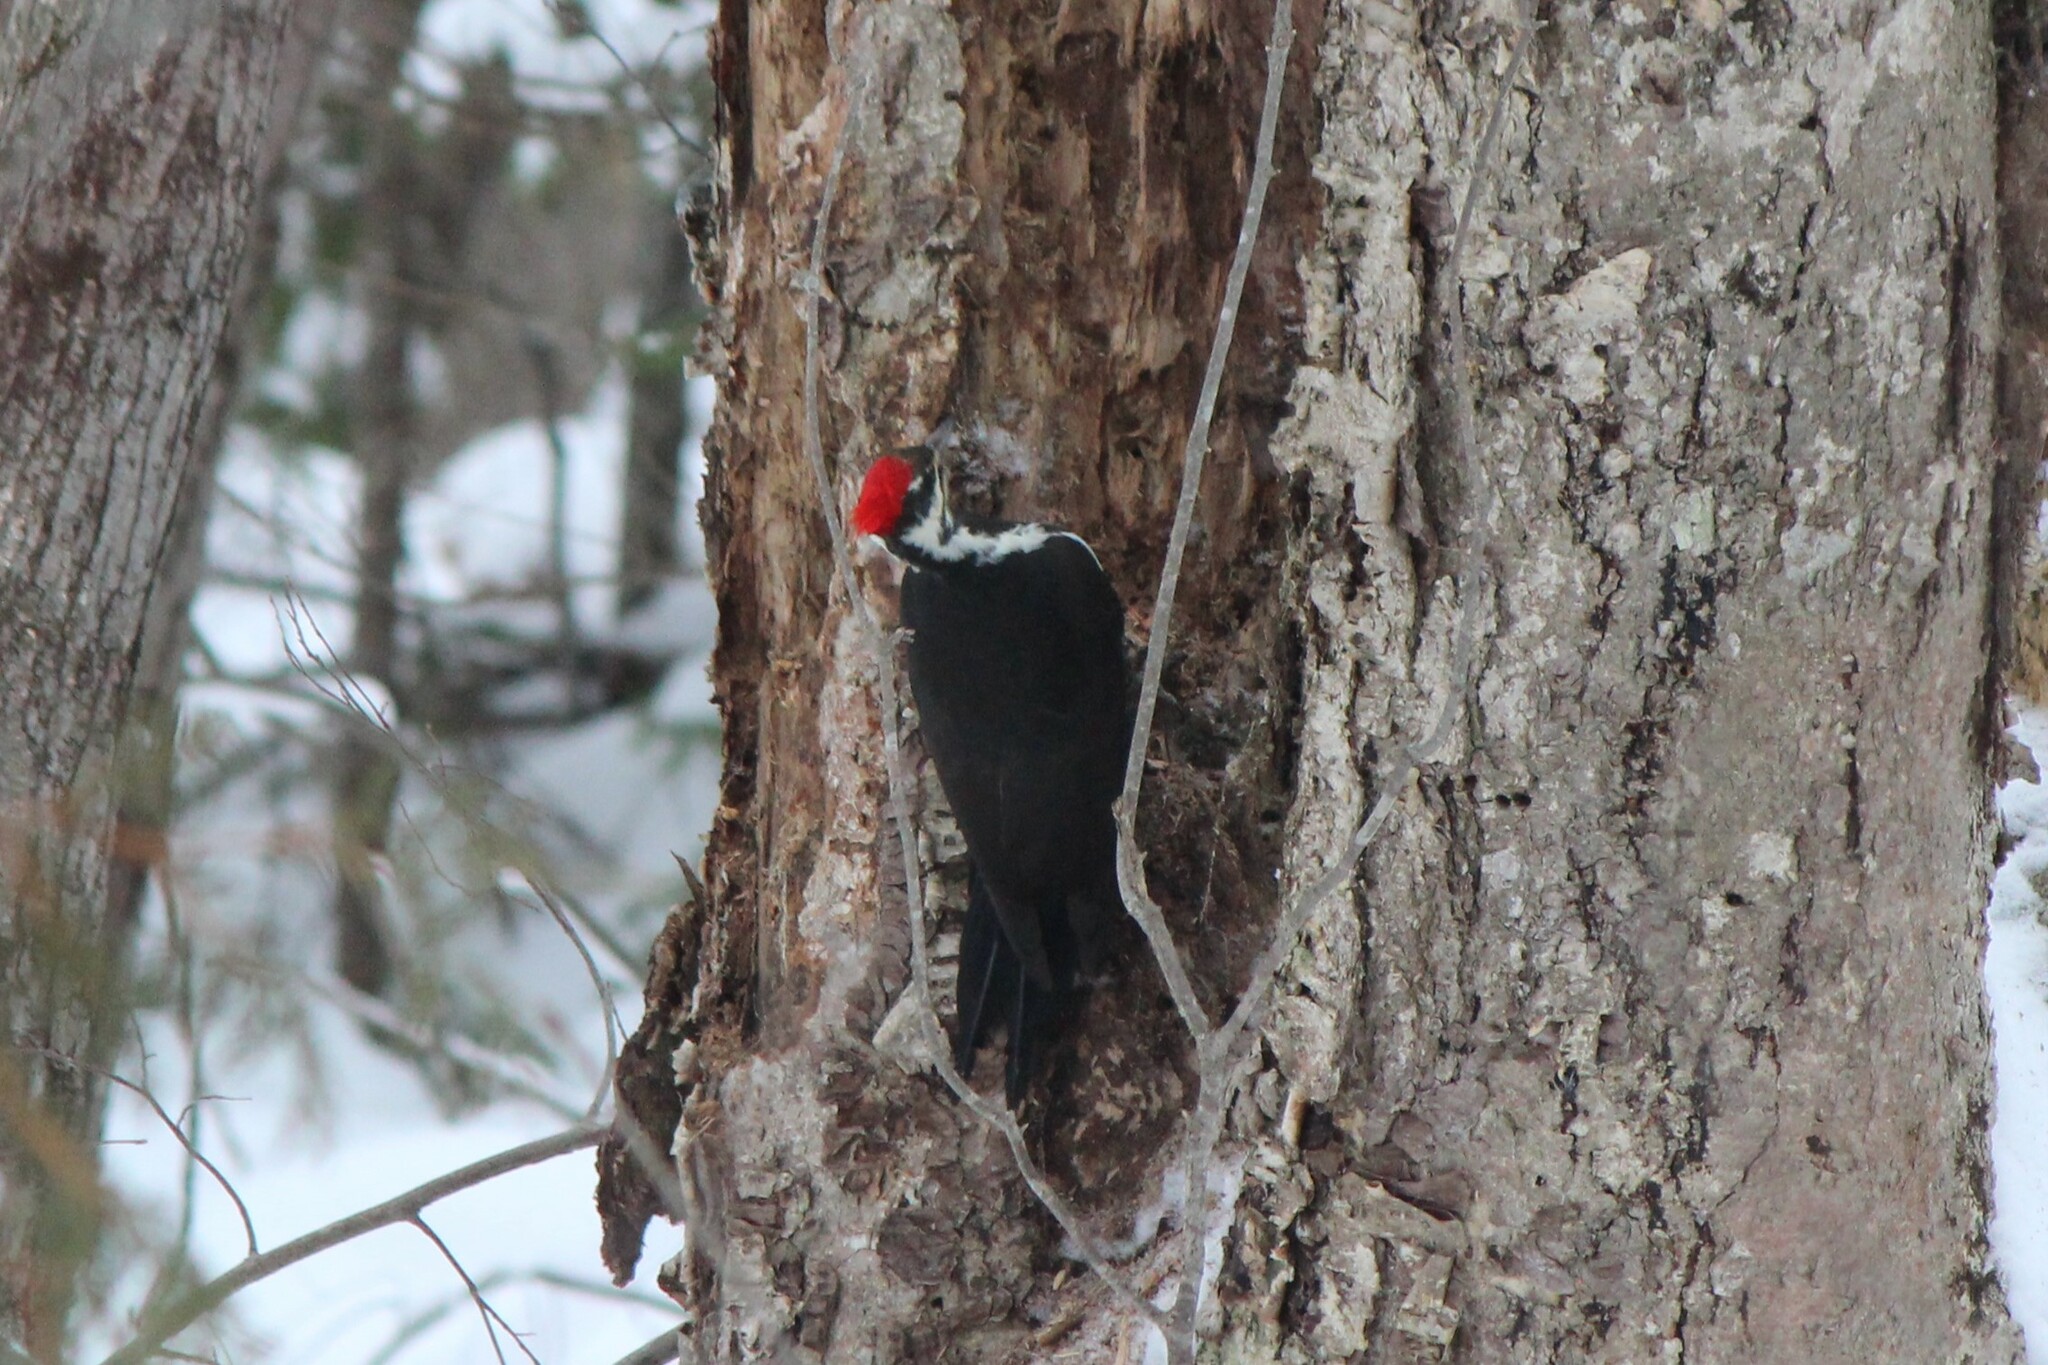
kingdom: Animalia
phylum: Chordata
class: Aves
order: Piciformes
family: Picidae
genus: Dryocopus
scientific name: Dryocopus pileatus
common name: Pileated woodpecker
